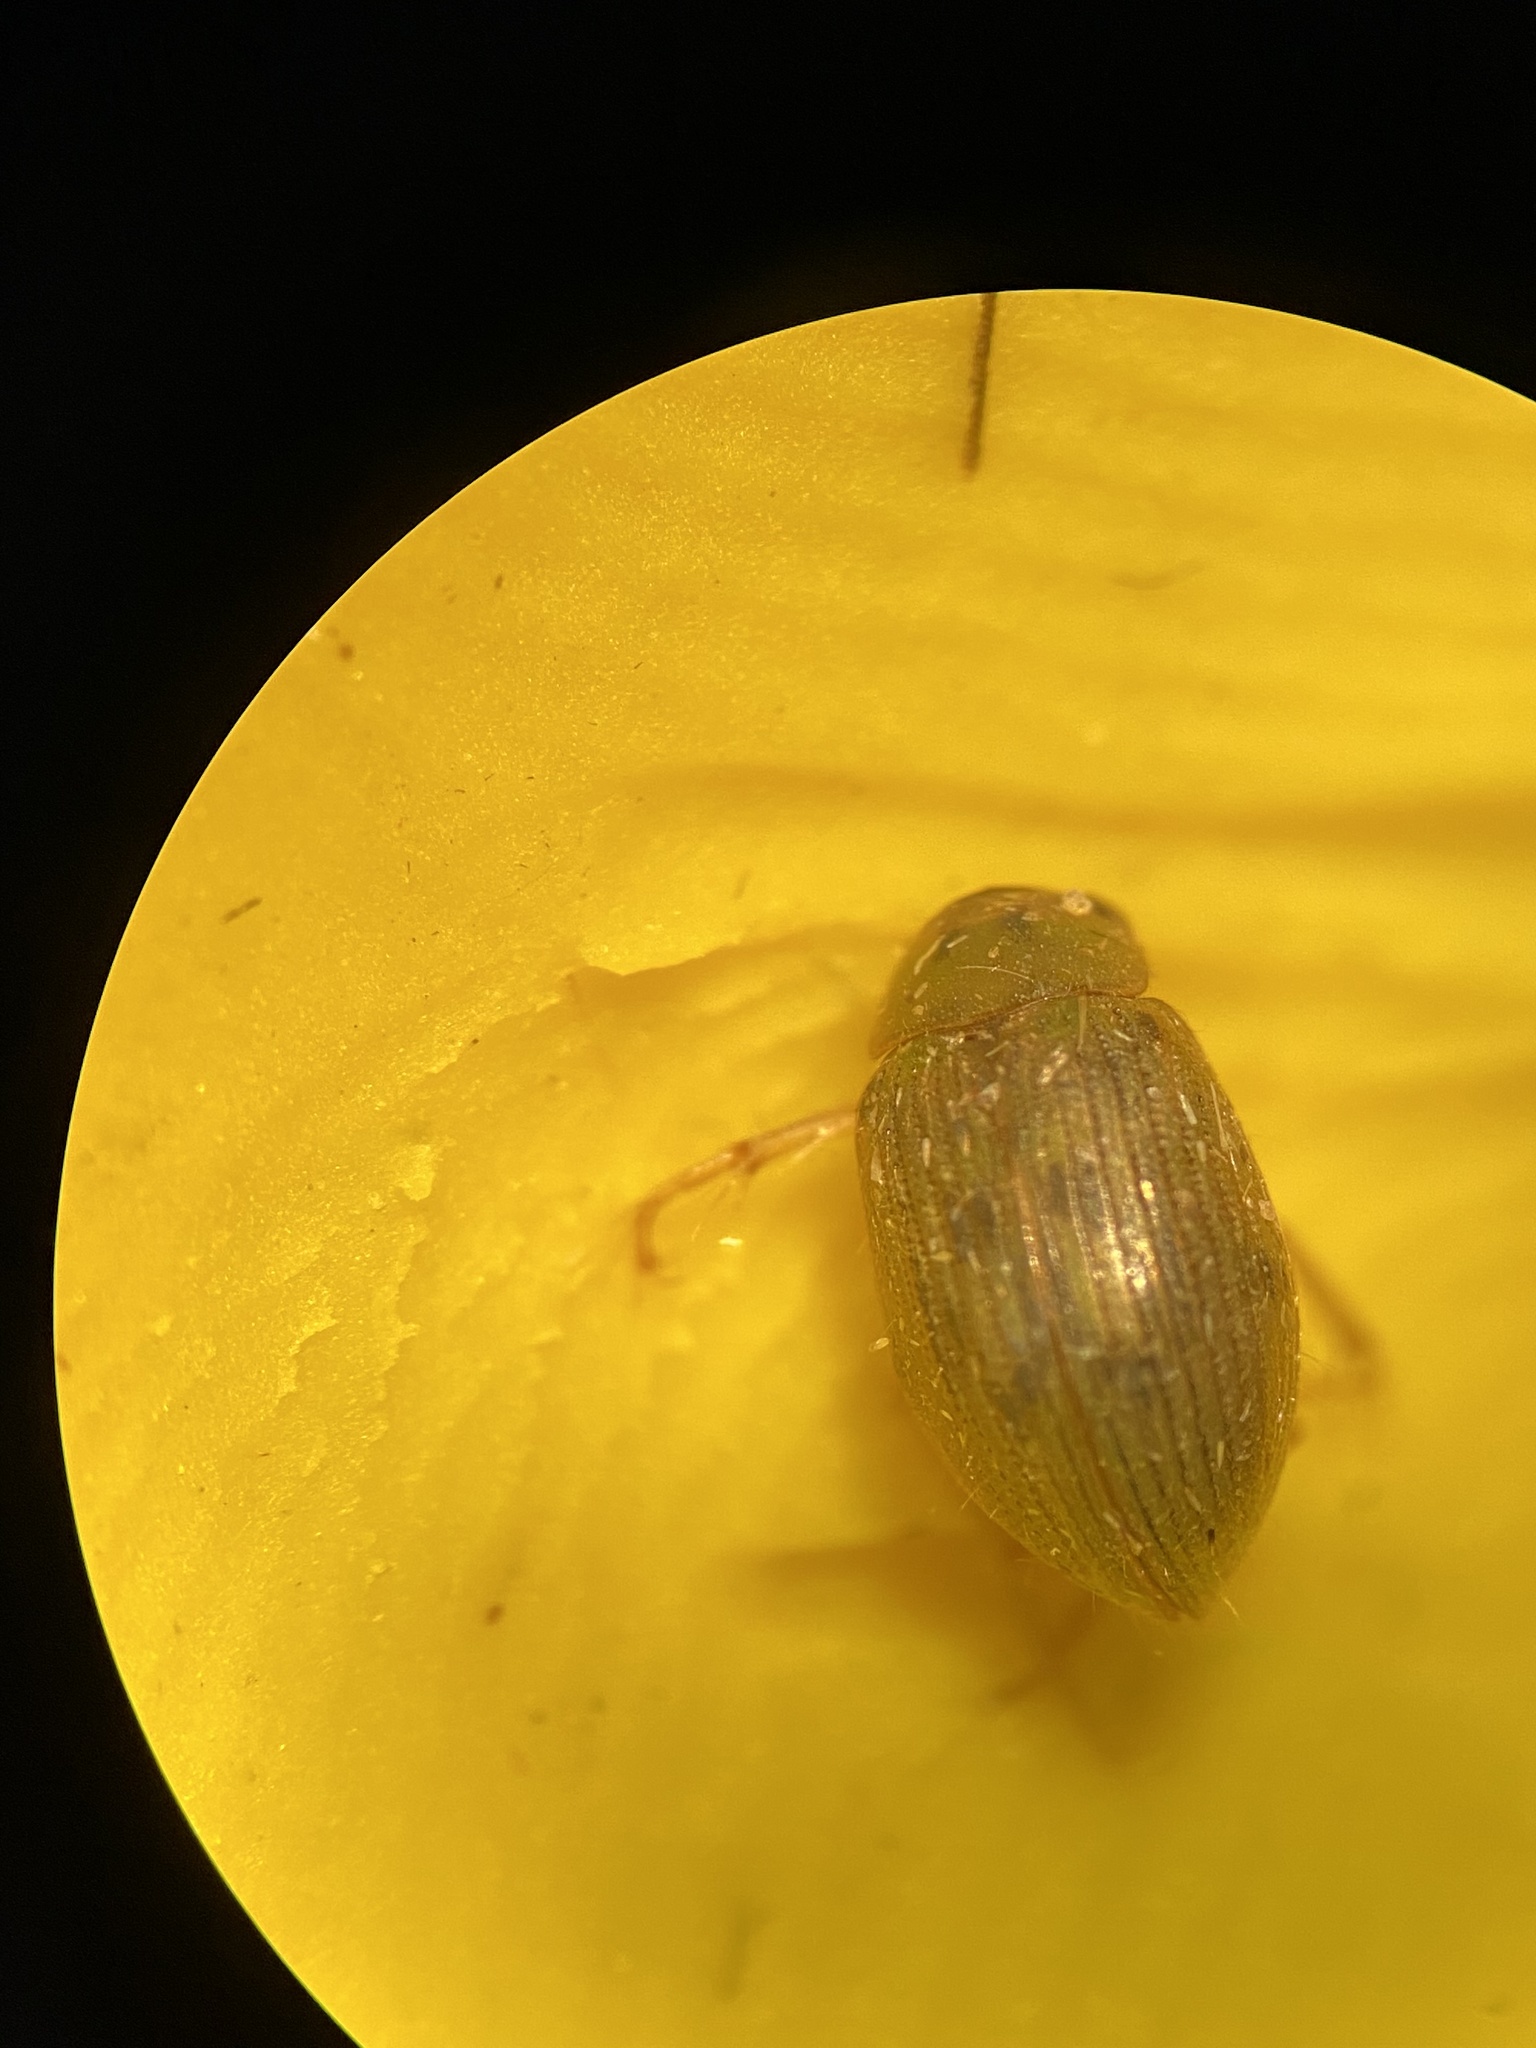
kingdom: Animalia
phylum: Arthropoda
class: Insecta
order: Coleoptera
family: Hydrophilidae
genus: Berosus
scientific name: Berosus
